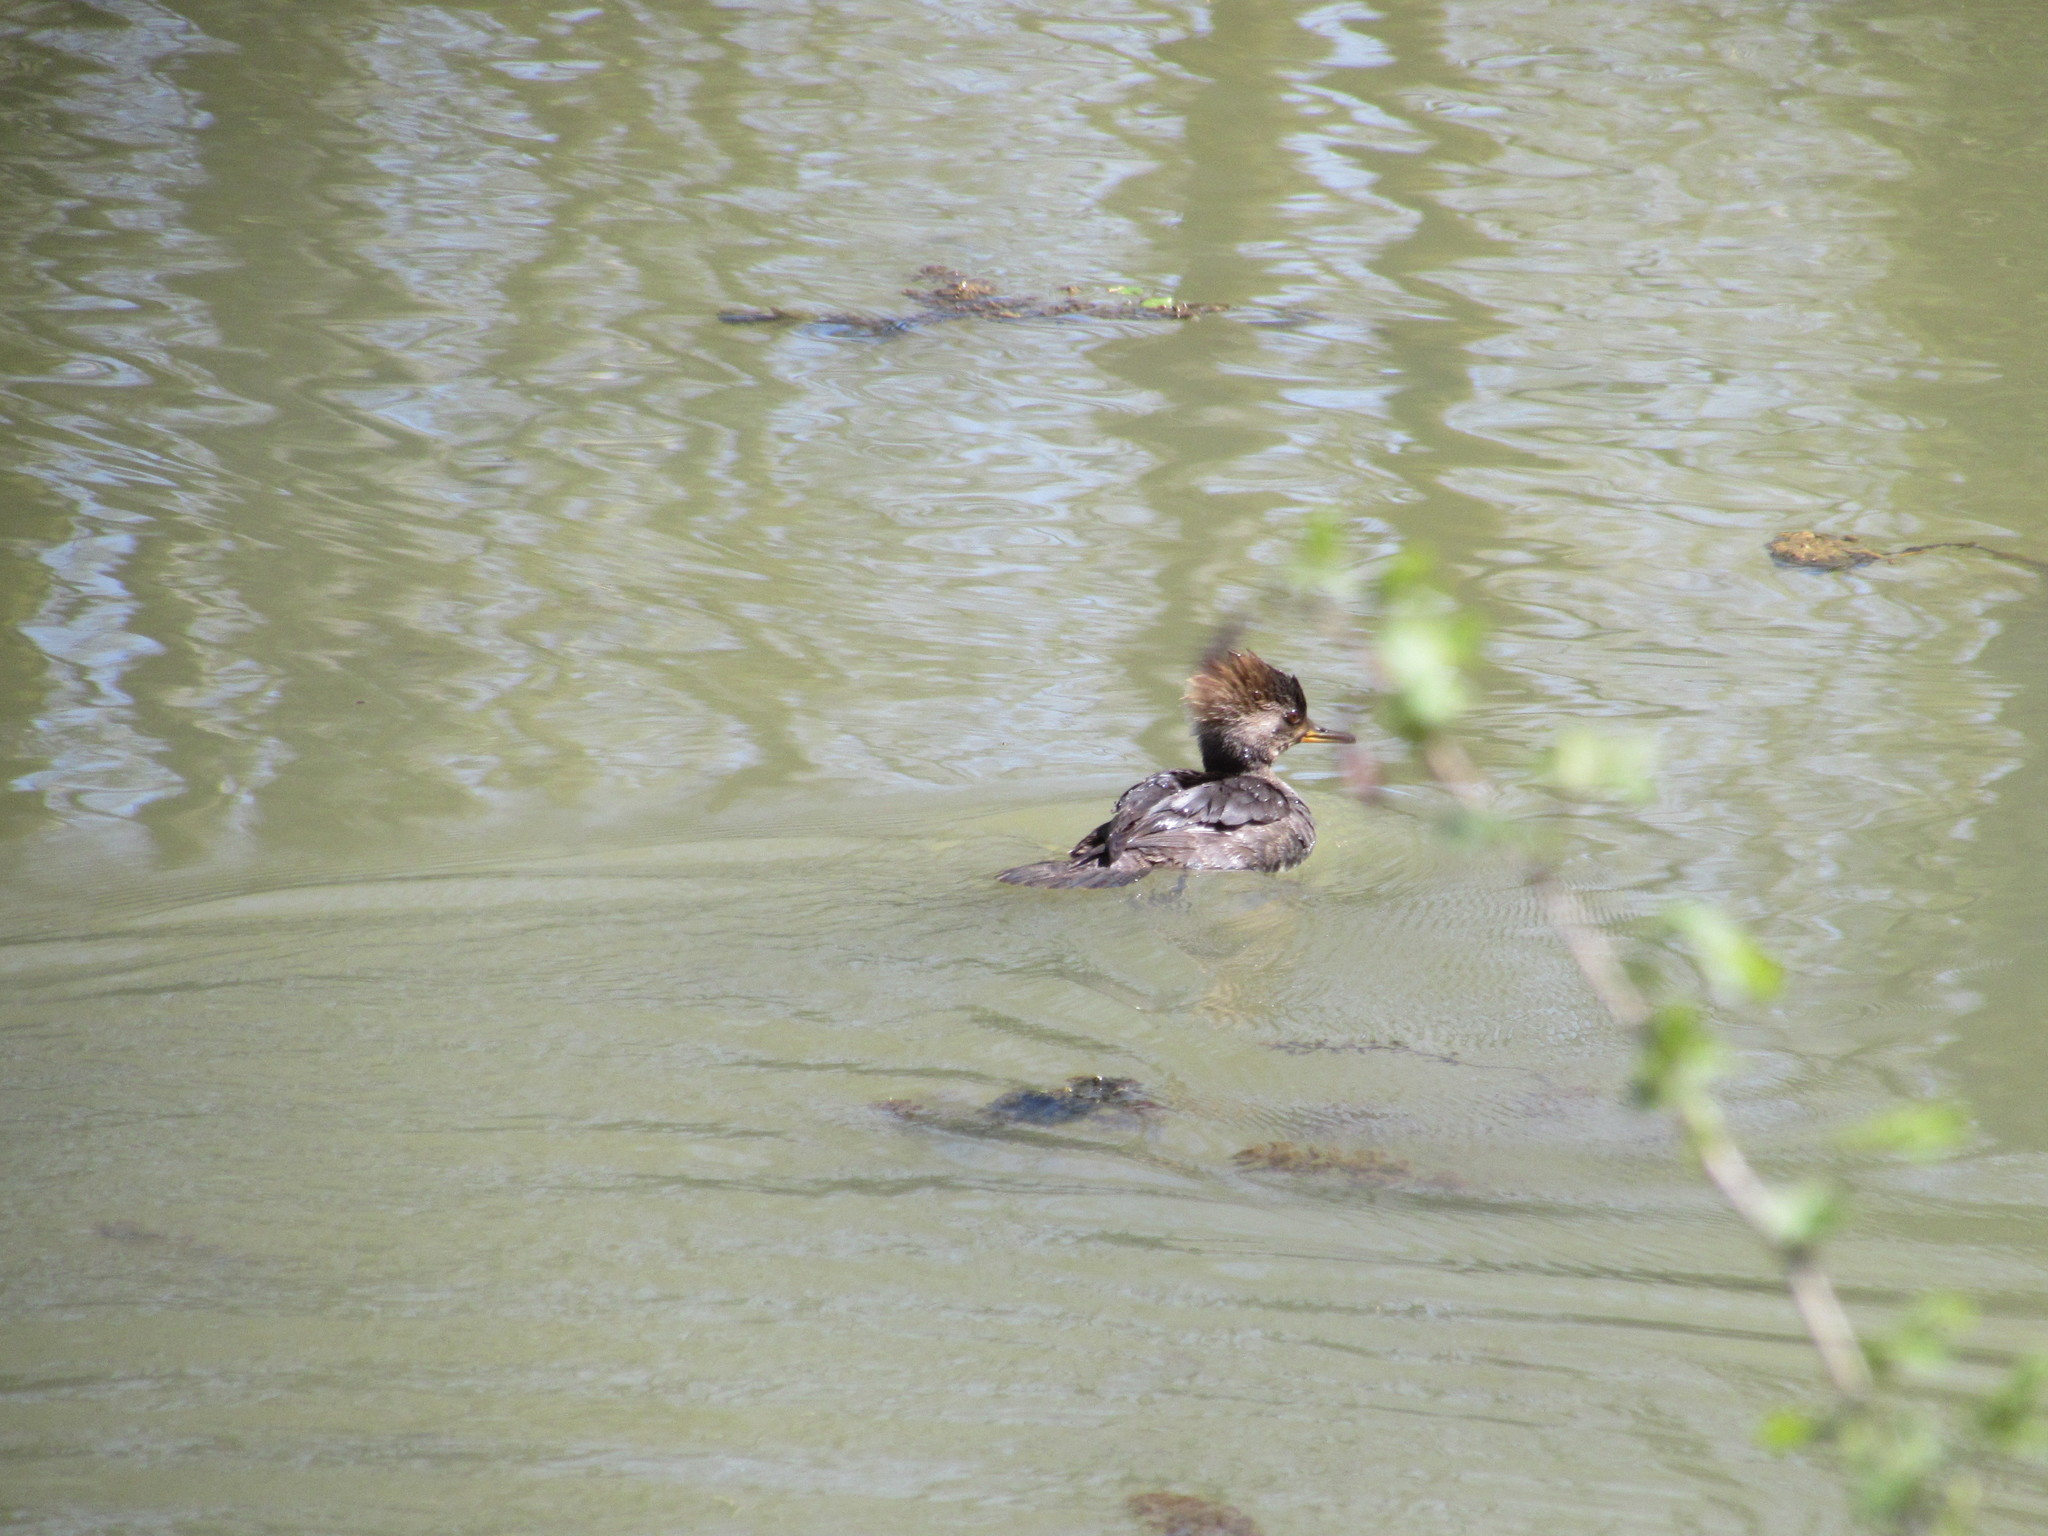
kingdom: Animalia
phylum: Chordata
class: Aves
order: Anseriformes
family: Anatidae
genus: Lophodytes
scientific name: Lophodytes cucullatus
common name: Hooded merganser
